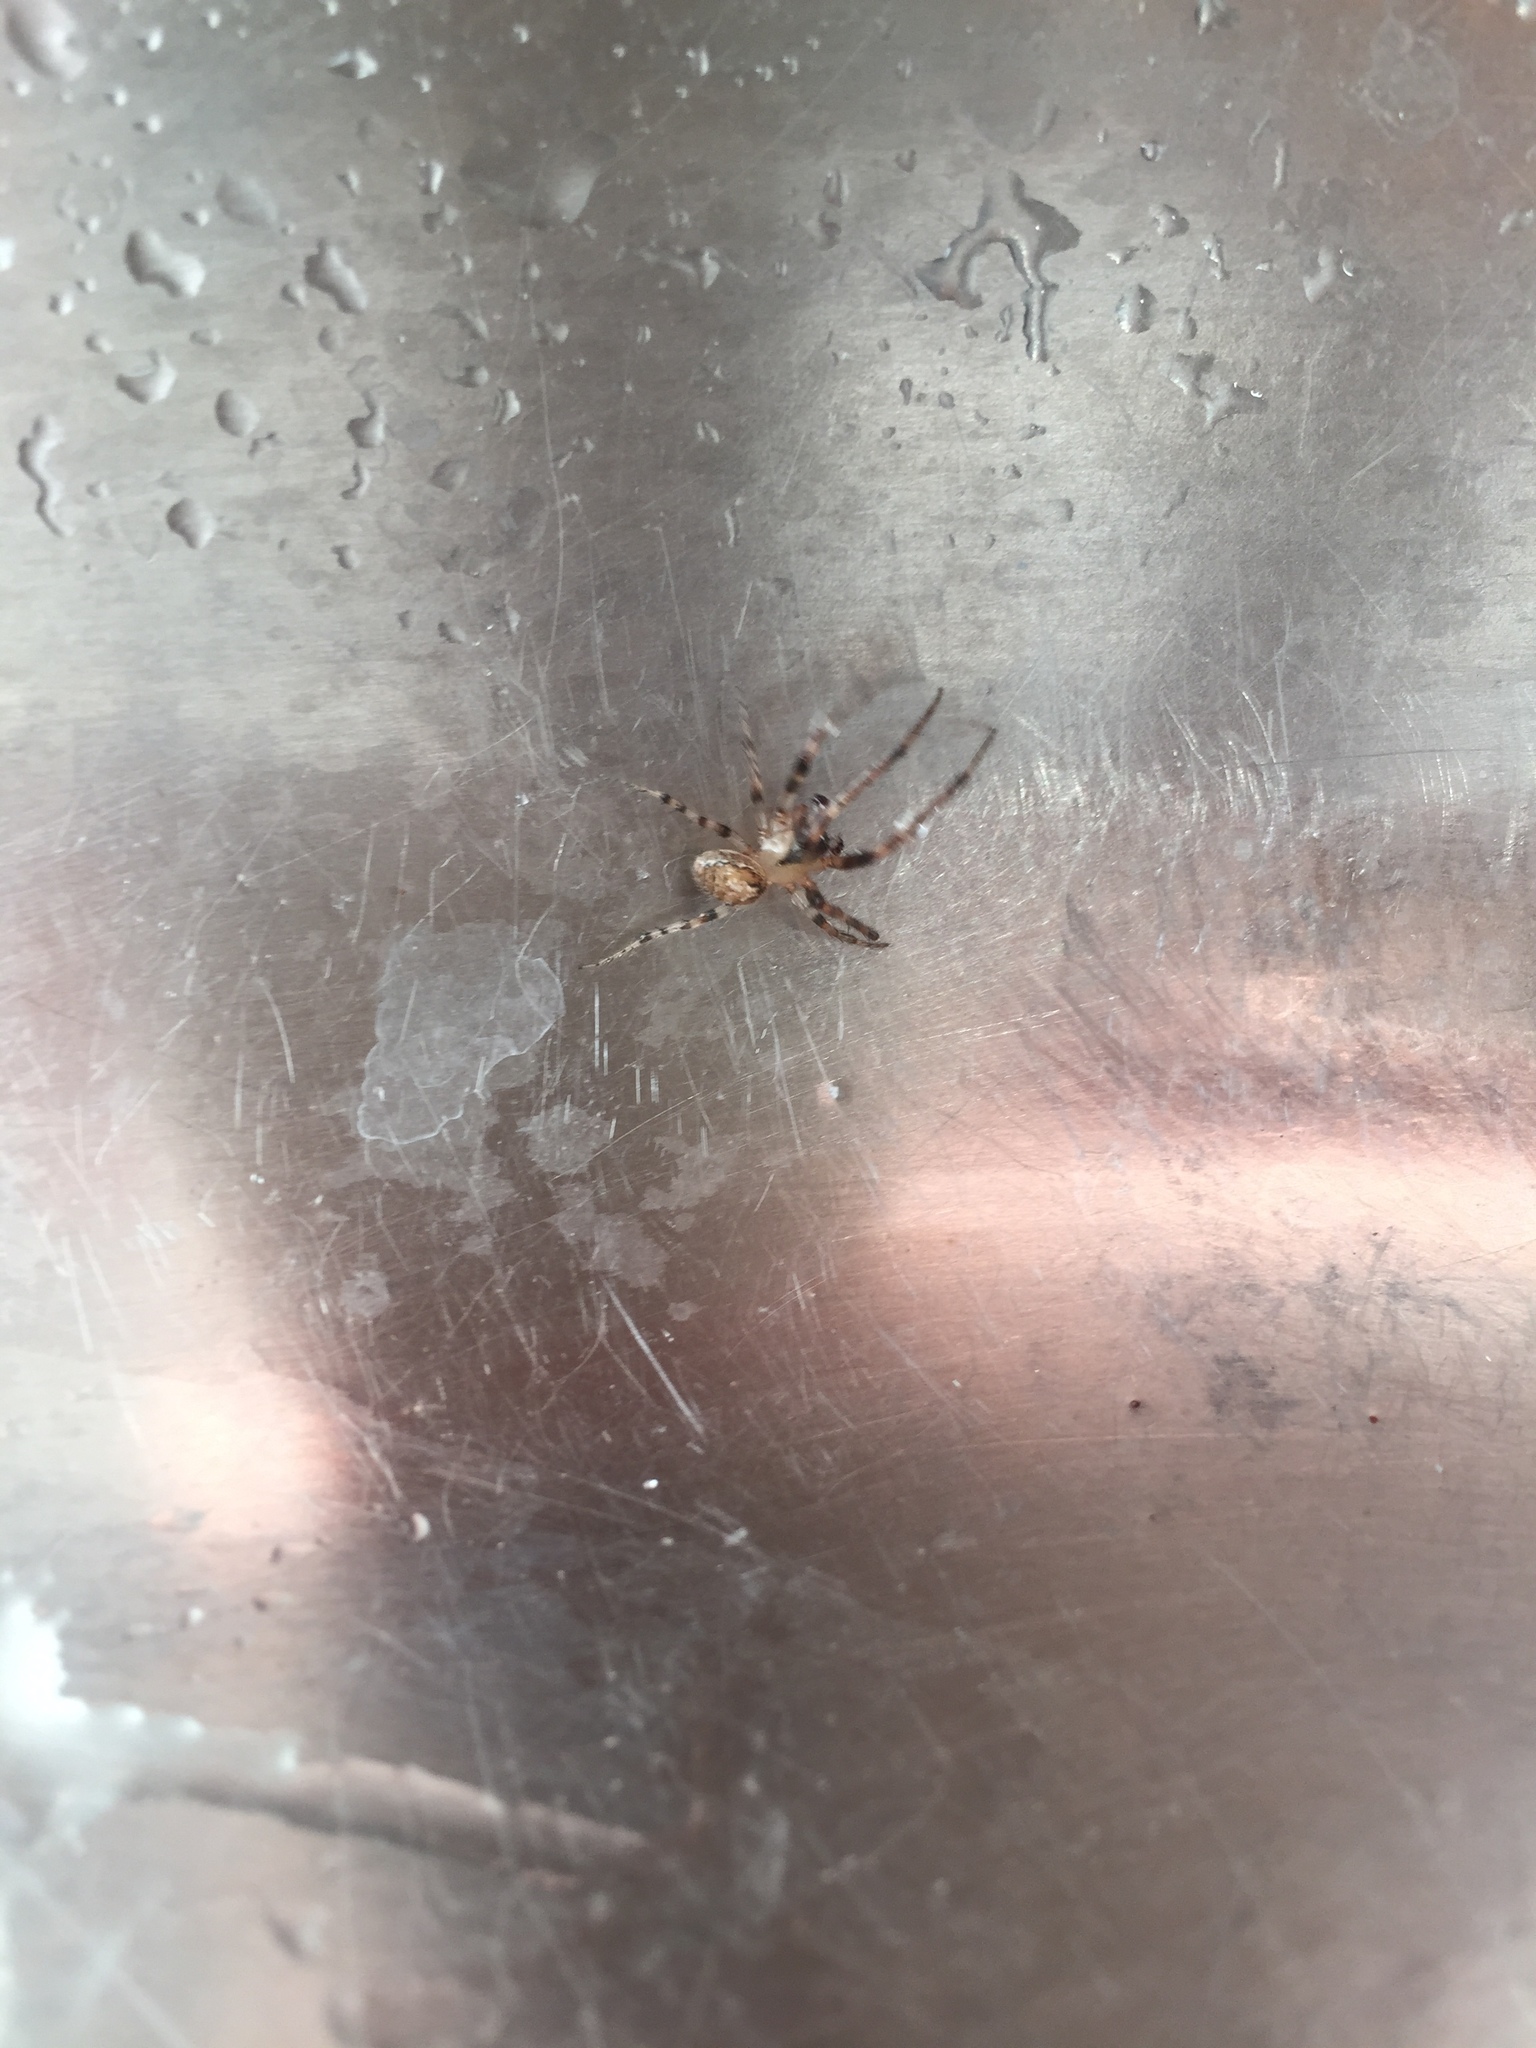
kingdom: Animalia
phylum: Arthropoda
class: Arachnida
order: Araneae
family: Araneidae
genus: Zygiella
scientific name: Zygiella x-notata
